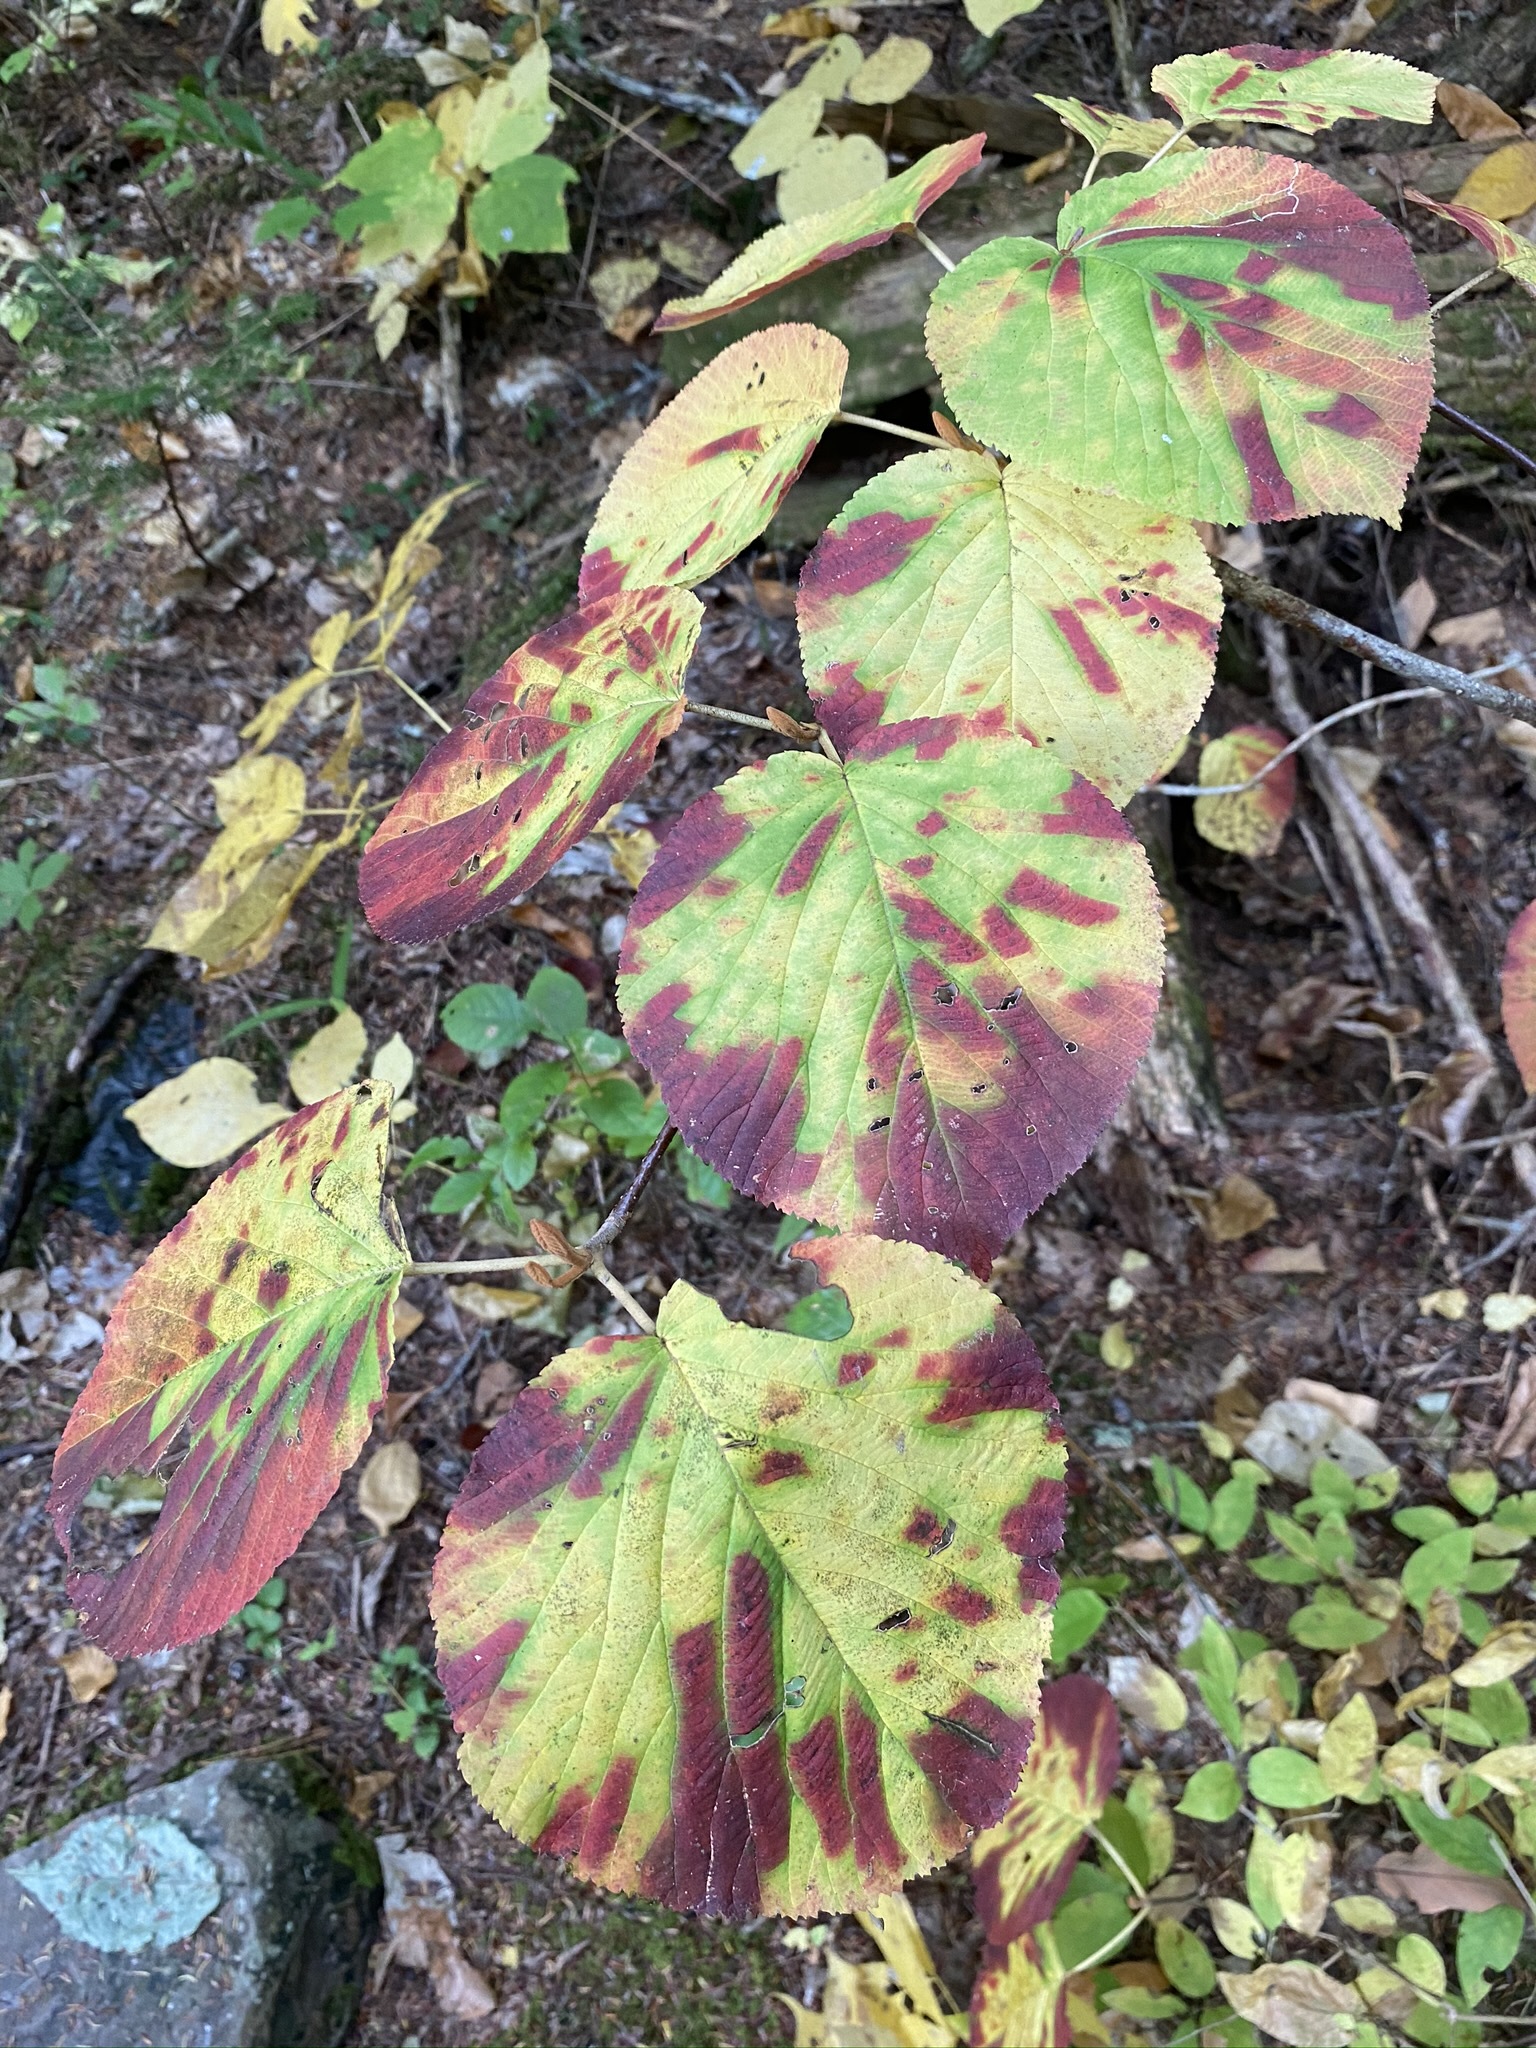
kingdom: Plantae
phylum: Tracheophyta
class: Magnoliopsida
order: Dipsacales
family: Viburnaceae
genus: Viburnum
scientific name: Viburnum lantanoides
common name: Hobblebush
